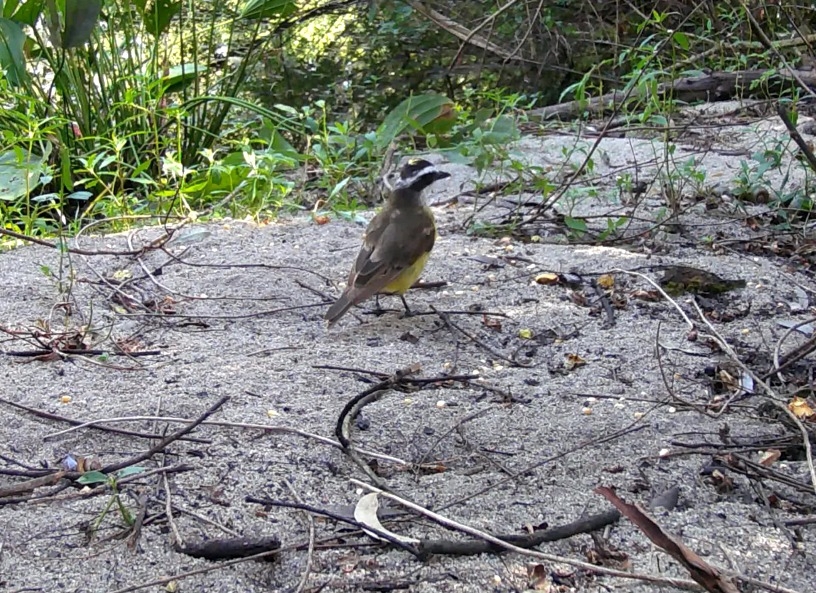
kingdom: Animalia
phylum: Chordata
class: Aves
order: Passeriformes
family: Tyrannidae
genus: Pitangus
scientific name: Pitangus sulphuratus
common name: Great kiskadee
